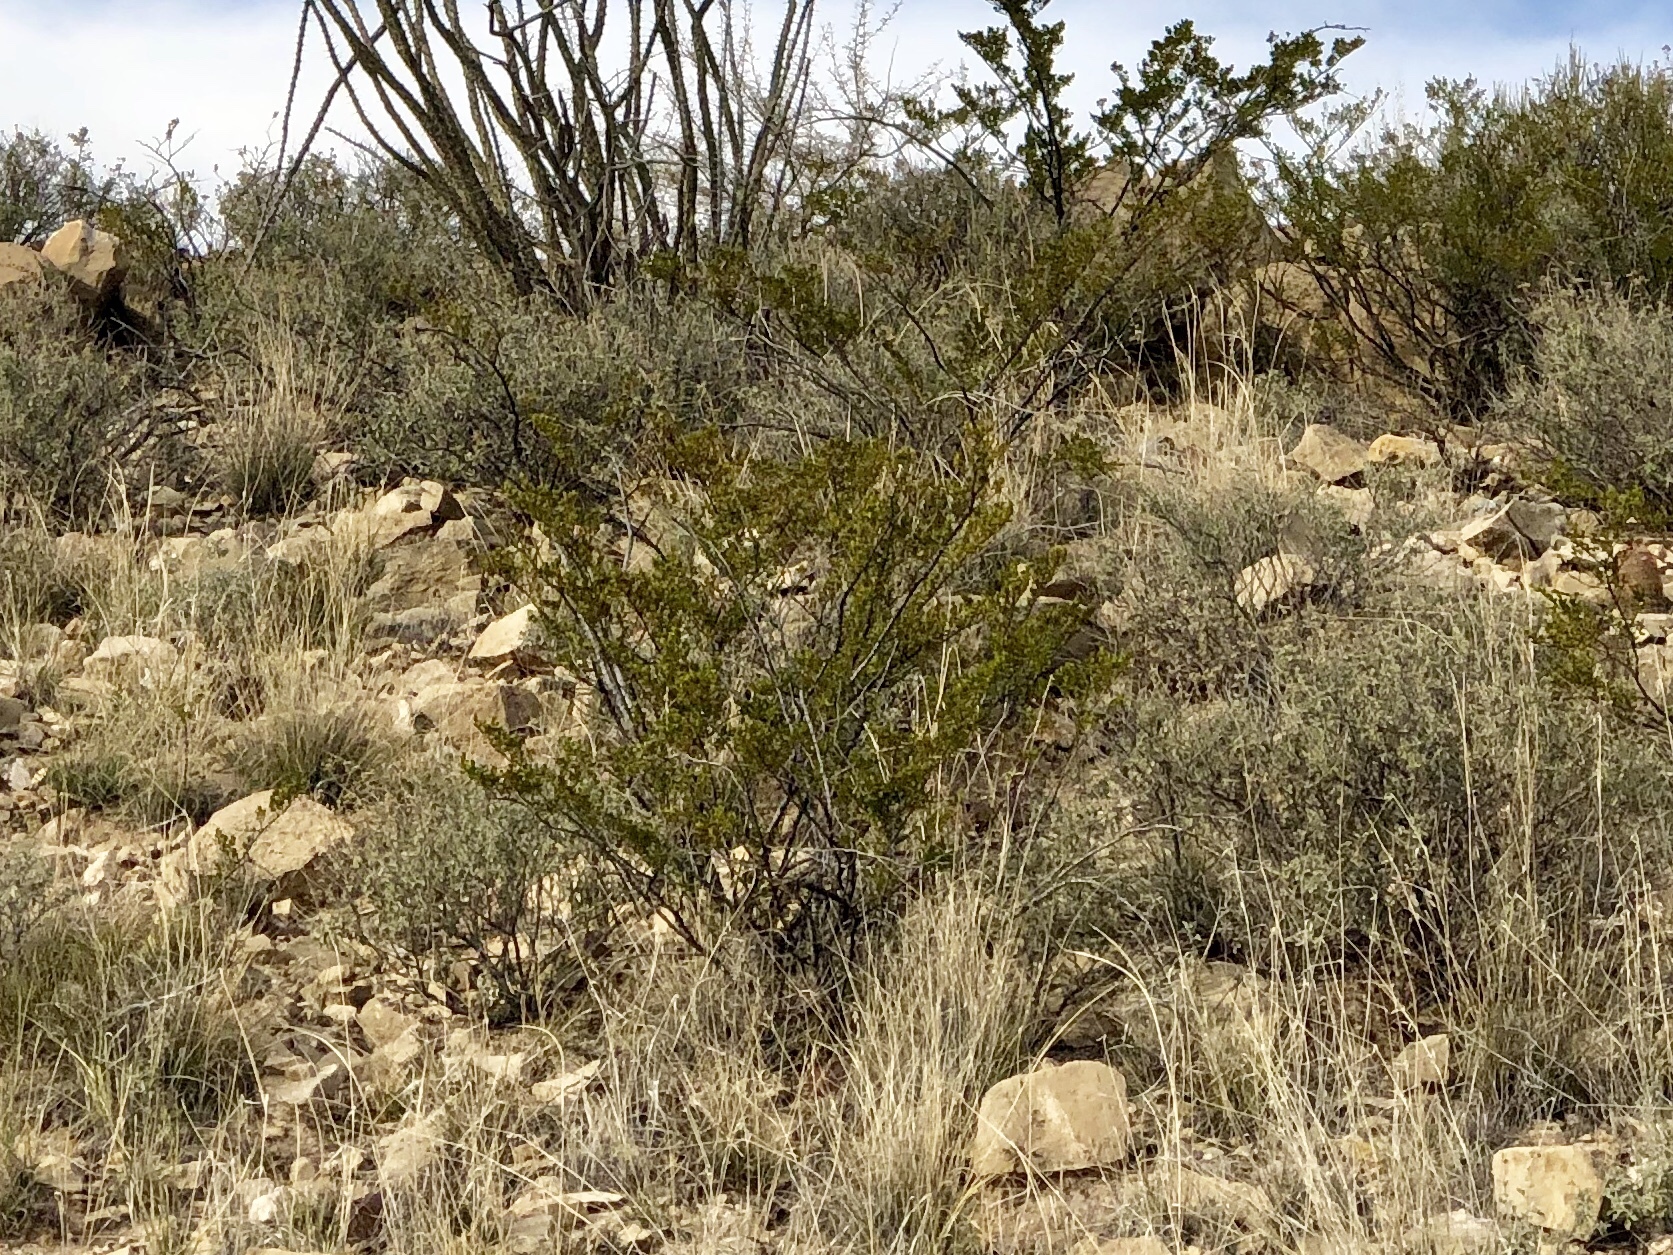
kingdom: Plantae
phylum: Tracheophyta
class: Magnoliopsida
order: Zygophyllales
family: Zygophyllaceae
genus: Larrea
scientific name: Larrea tridentata
